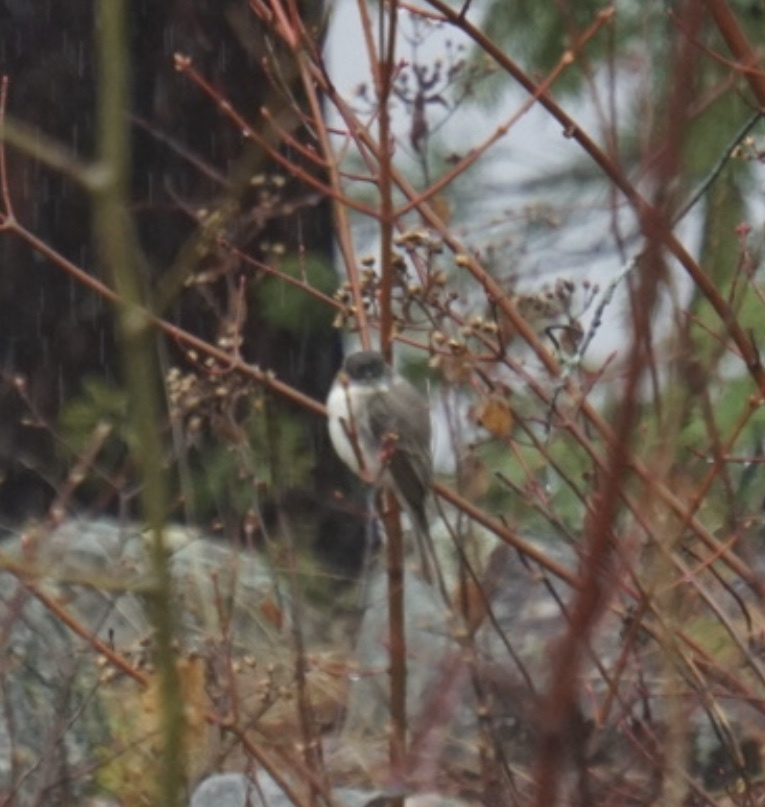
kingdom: Animalia
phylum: Chordata
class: Aves
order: Passeriformes
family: Tyrannidae
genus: Sayornis
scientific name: Sayornis phoebe
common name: Eastern phoebe
